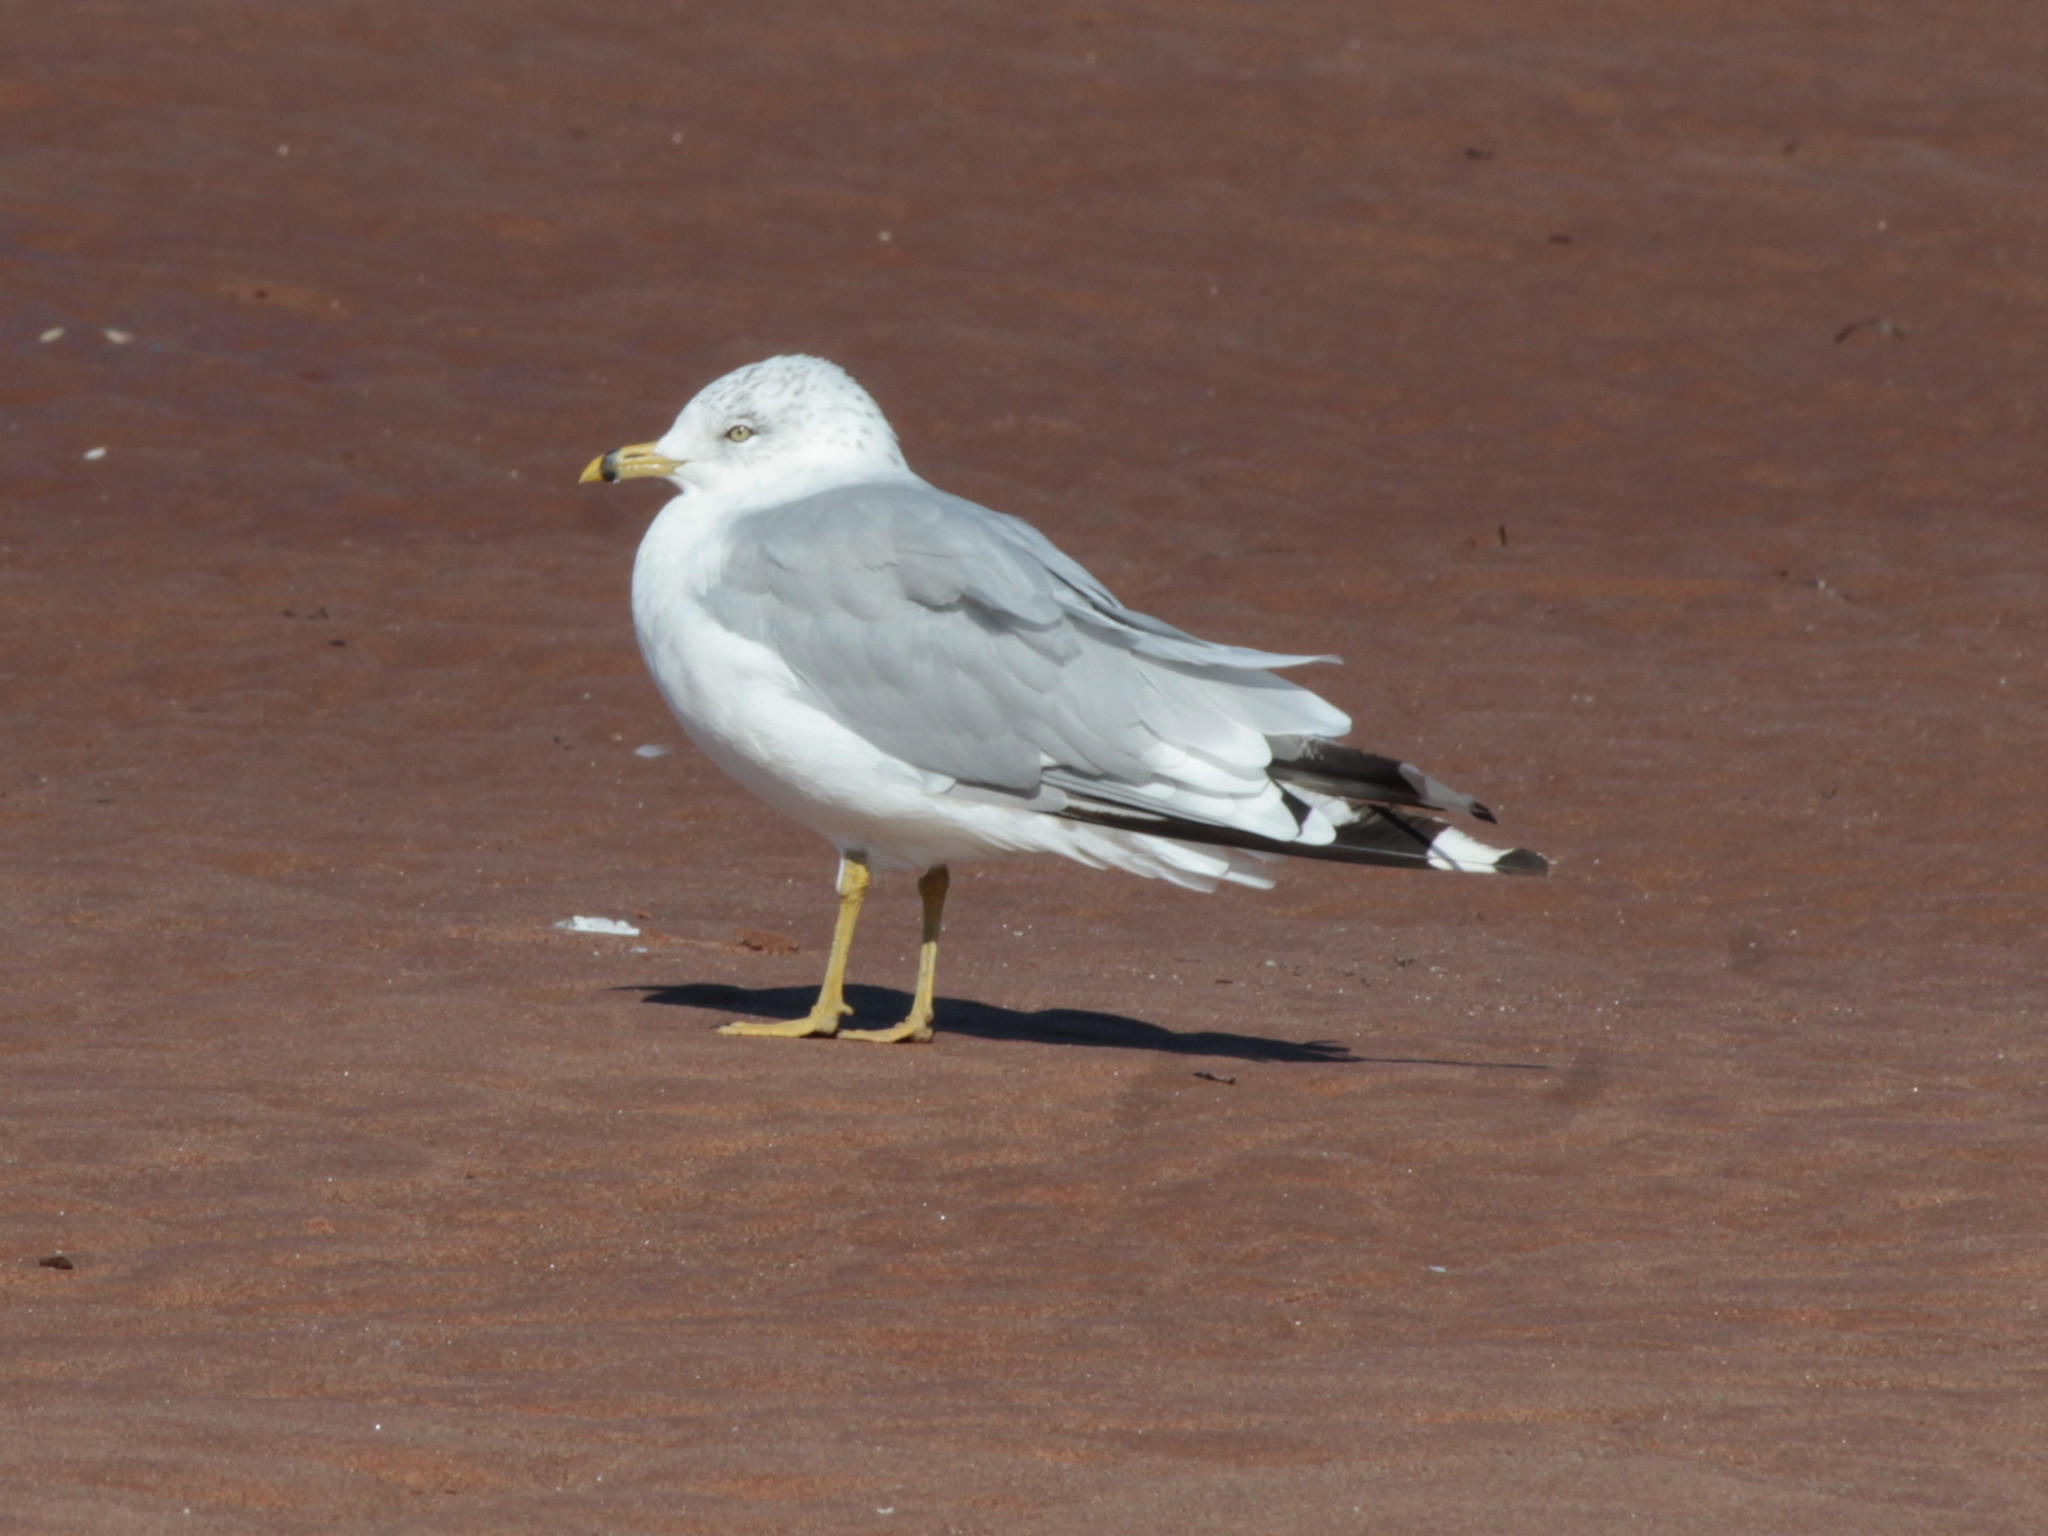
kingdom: Animalia
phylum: Chordata
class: Aves
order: Charadriiformes
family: Laridae
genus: Larus
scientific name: Larus delawarensis
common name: Ring-billed gull
